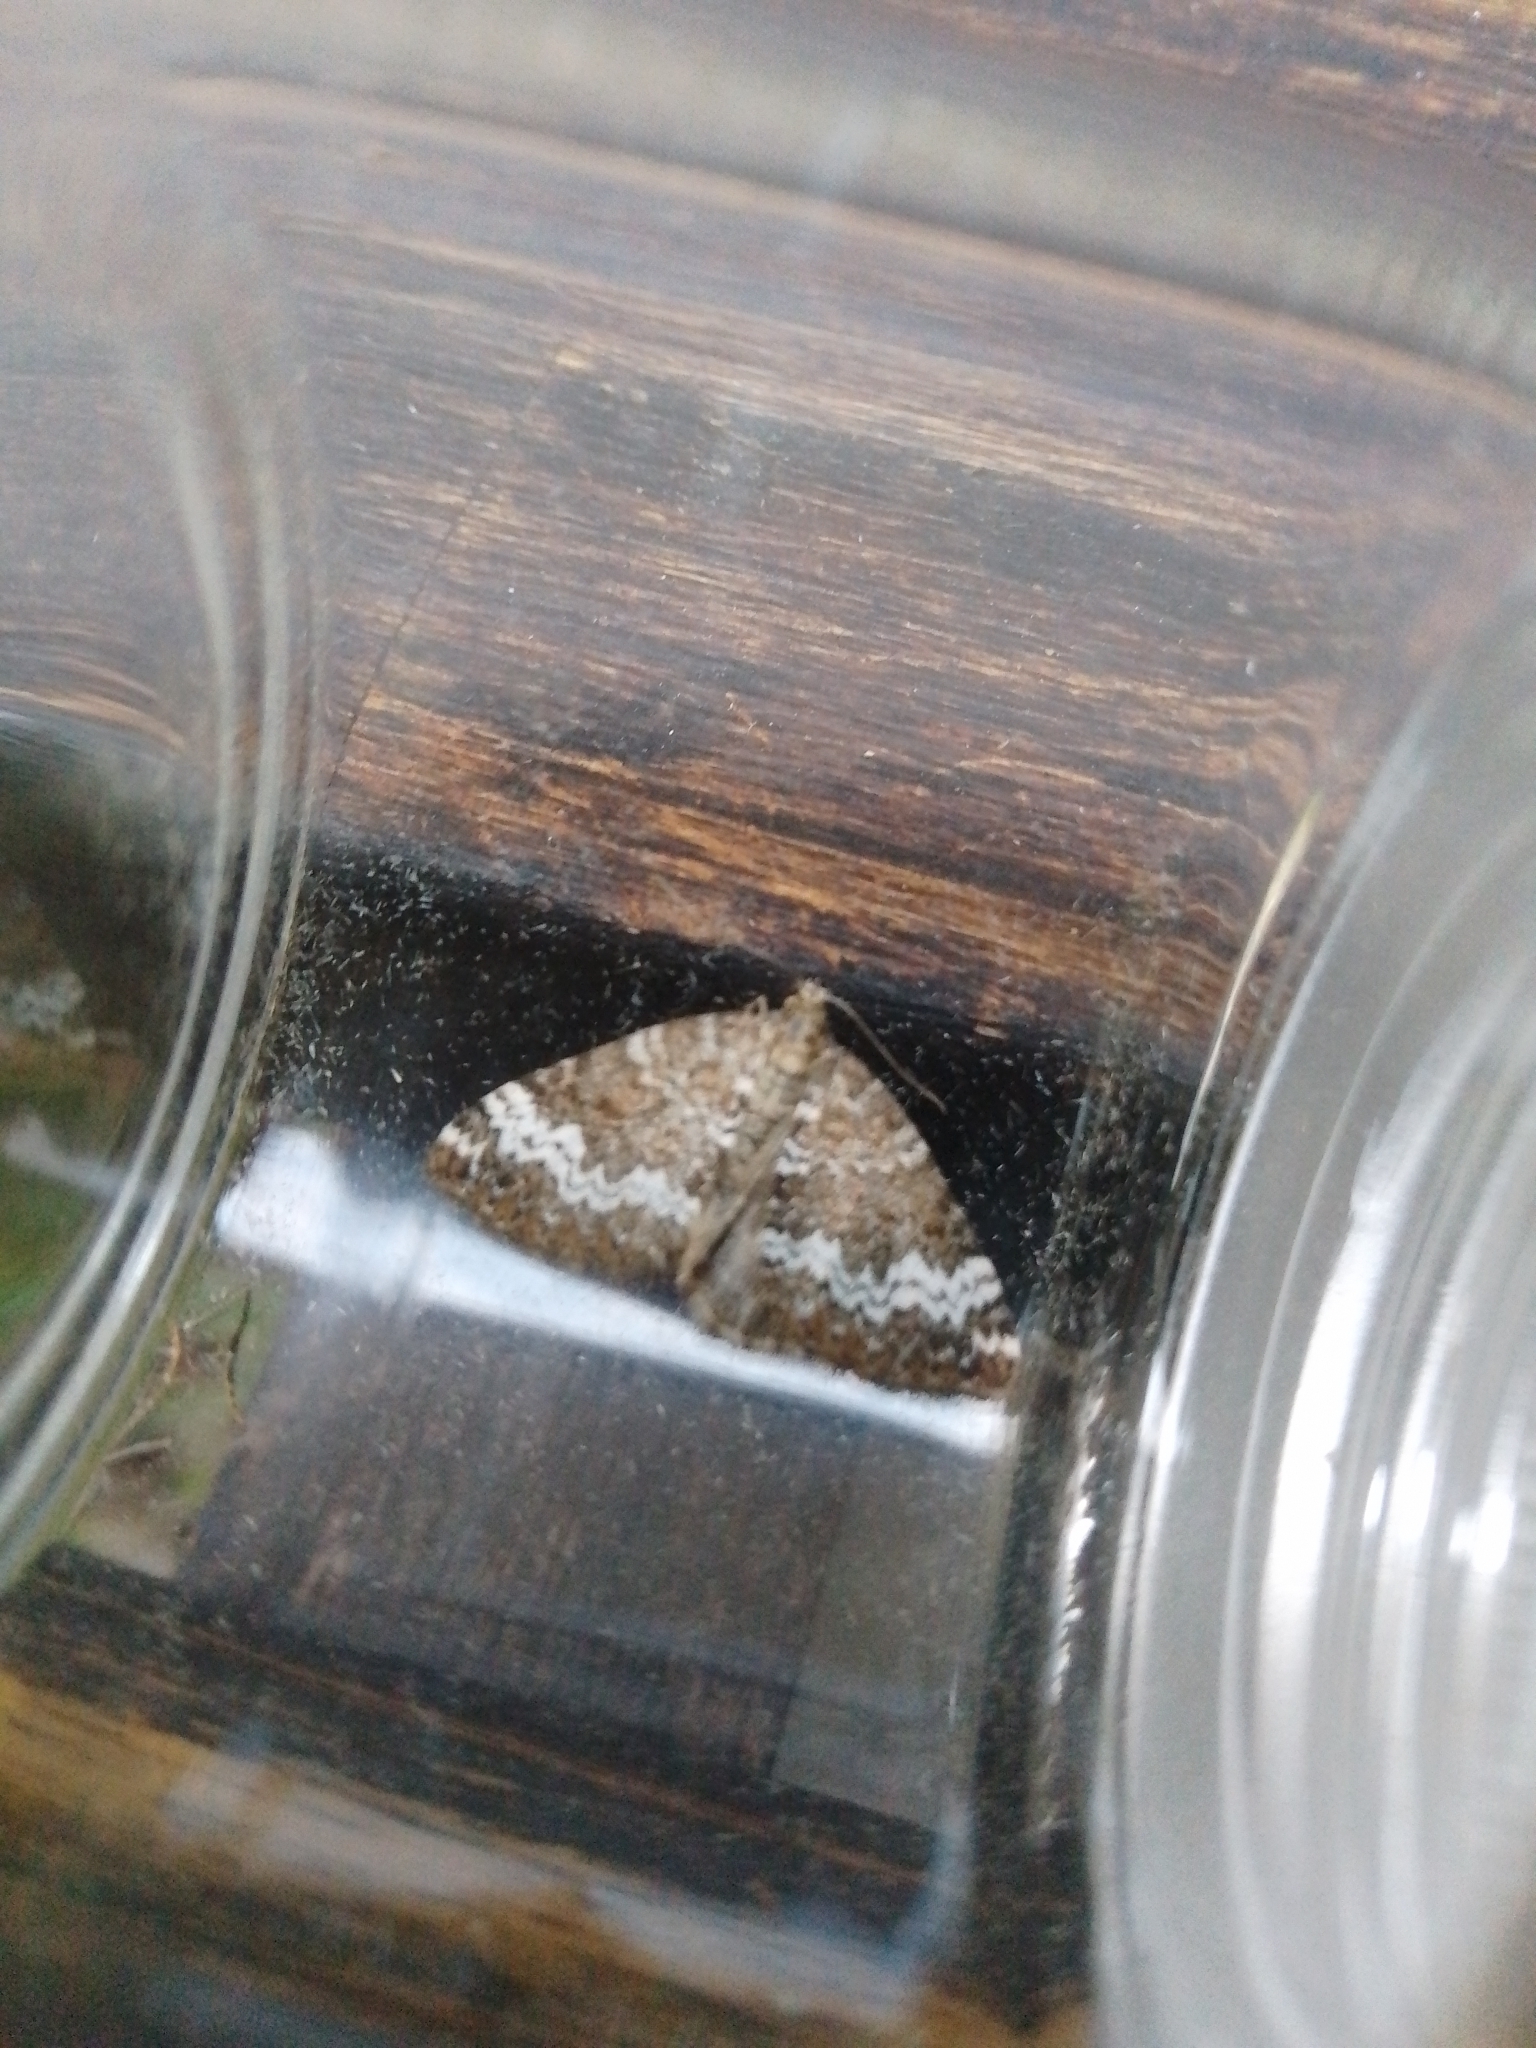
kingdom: Animalia
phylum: Arthropoda
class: Insecta
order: Lepidoptera
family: Geometridae
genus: Perizoma
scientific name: Perizoma alchemillata
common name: Small rivulet
